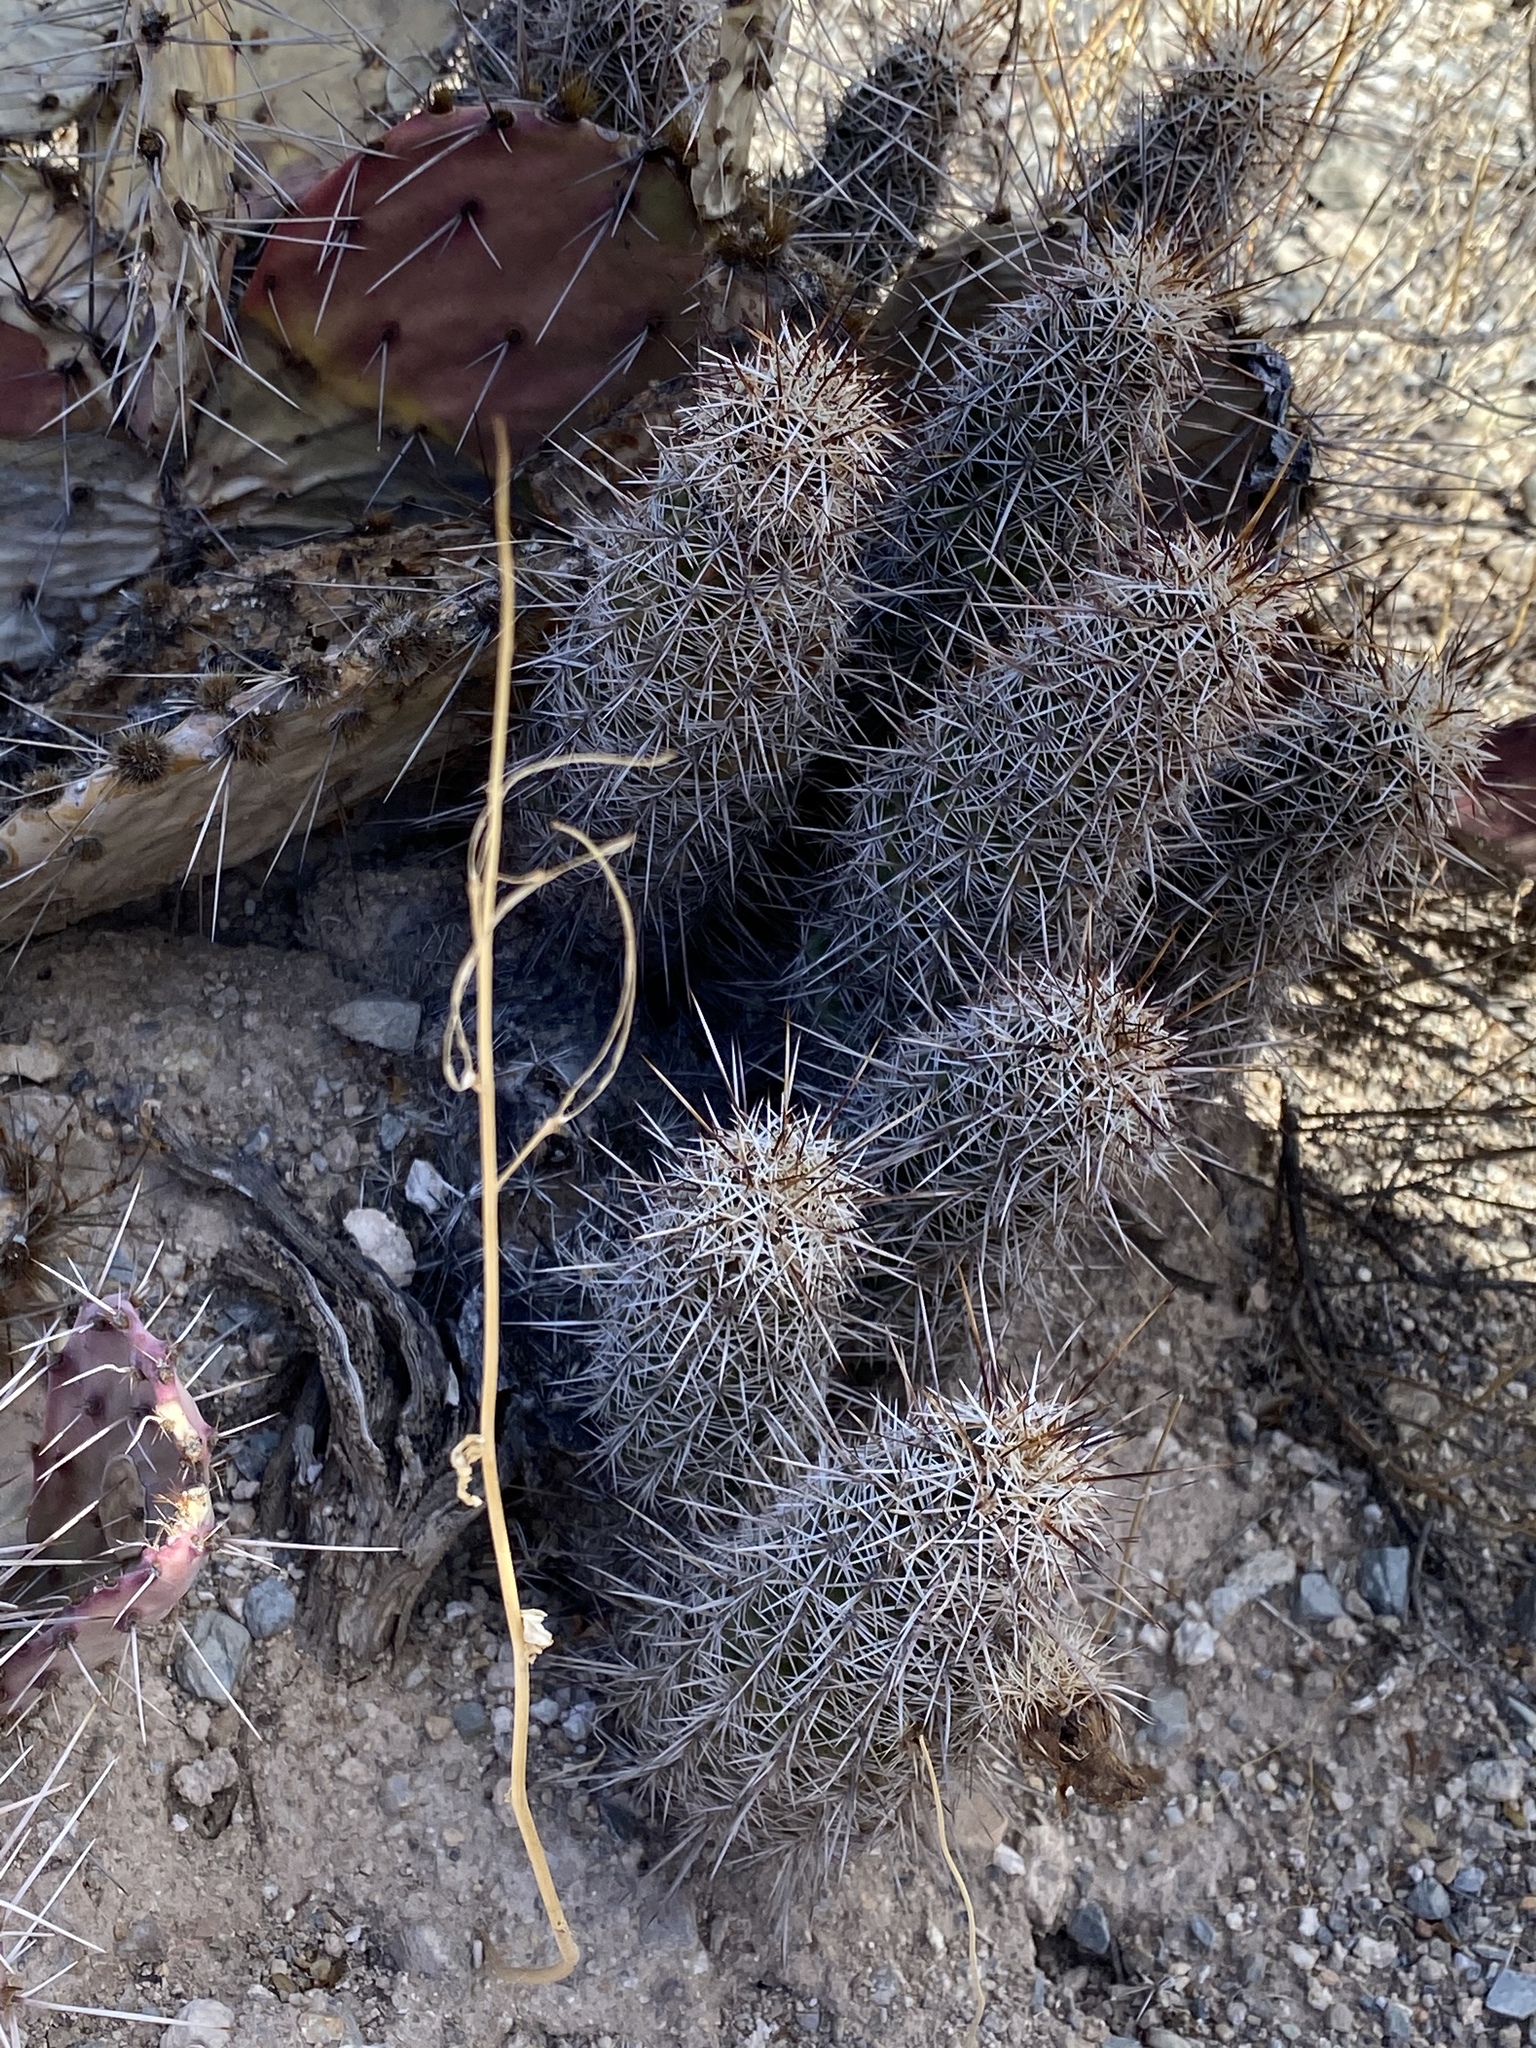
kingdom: Plantae
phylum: Tracheophyta
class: Magnoliopsida
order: Caryophyllales
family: Cactaceae
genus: Echinocereus
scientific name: Echinocereus fasciculatus
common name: Bundle hedgehog
